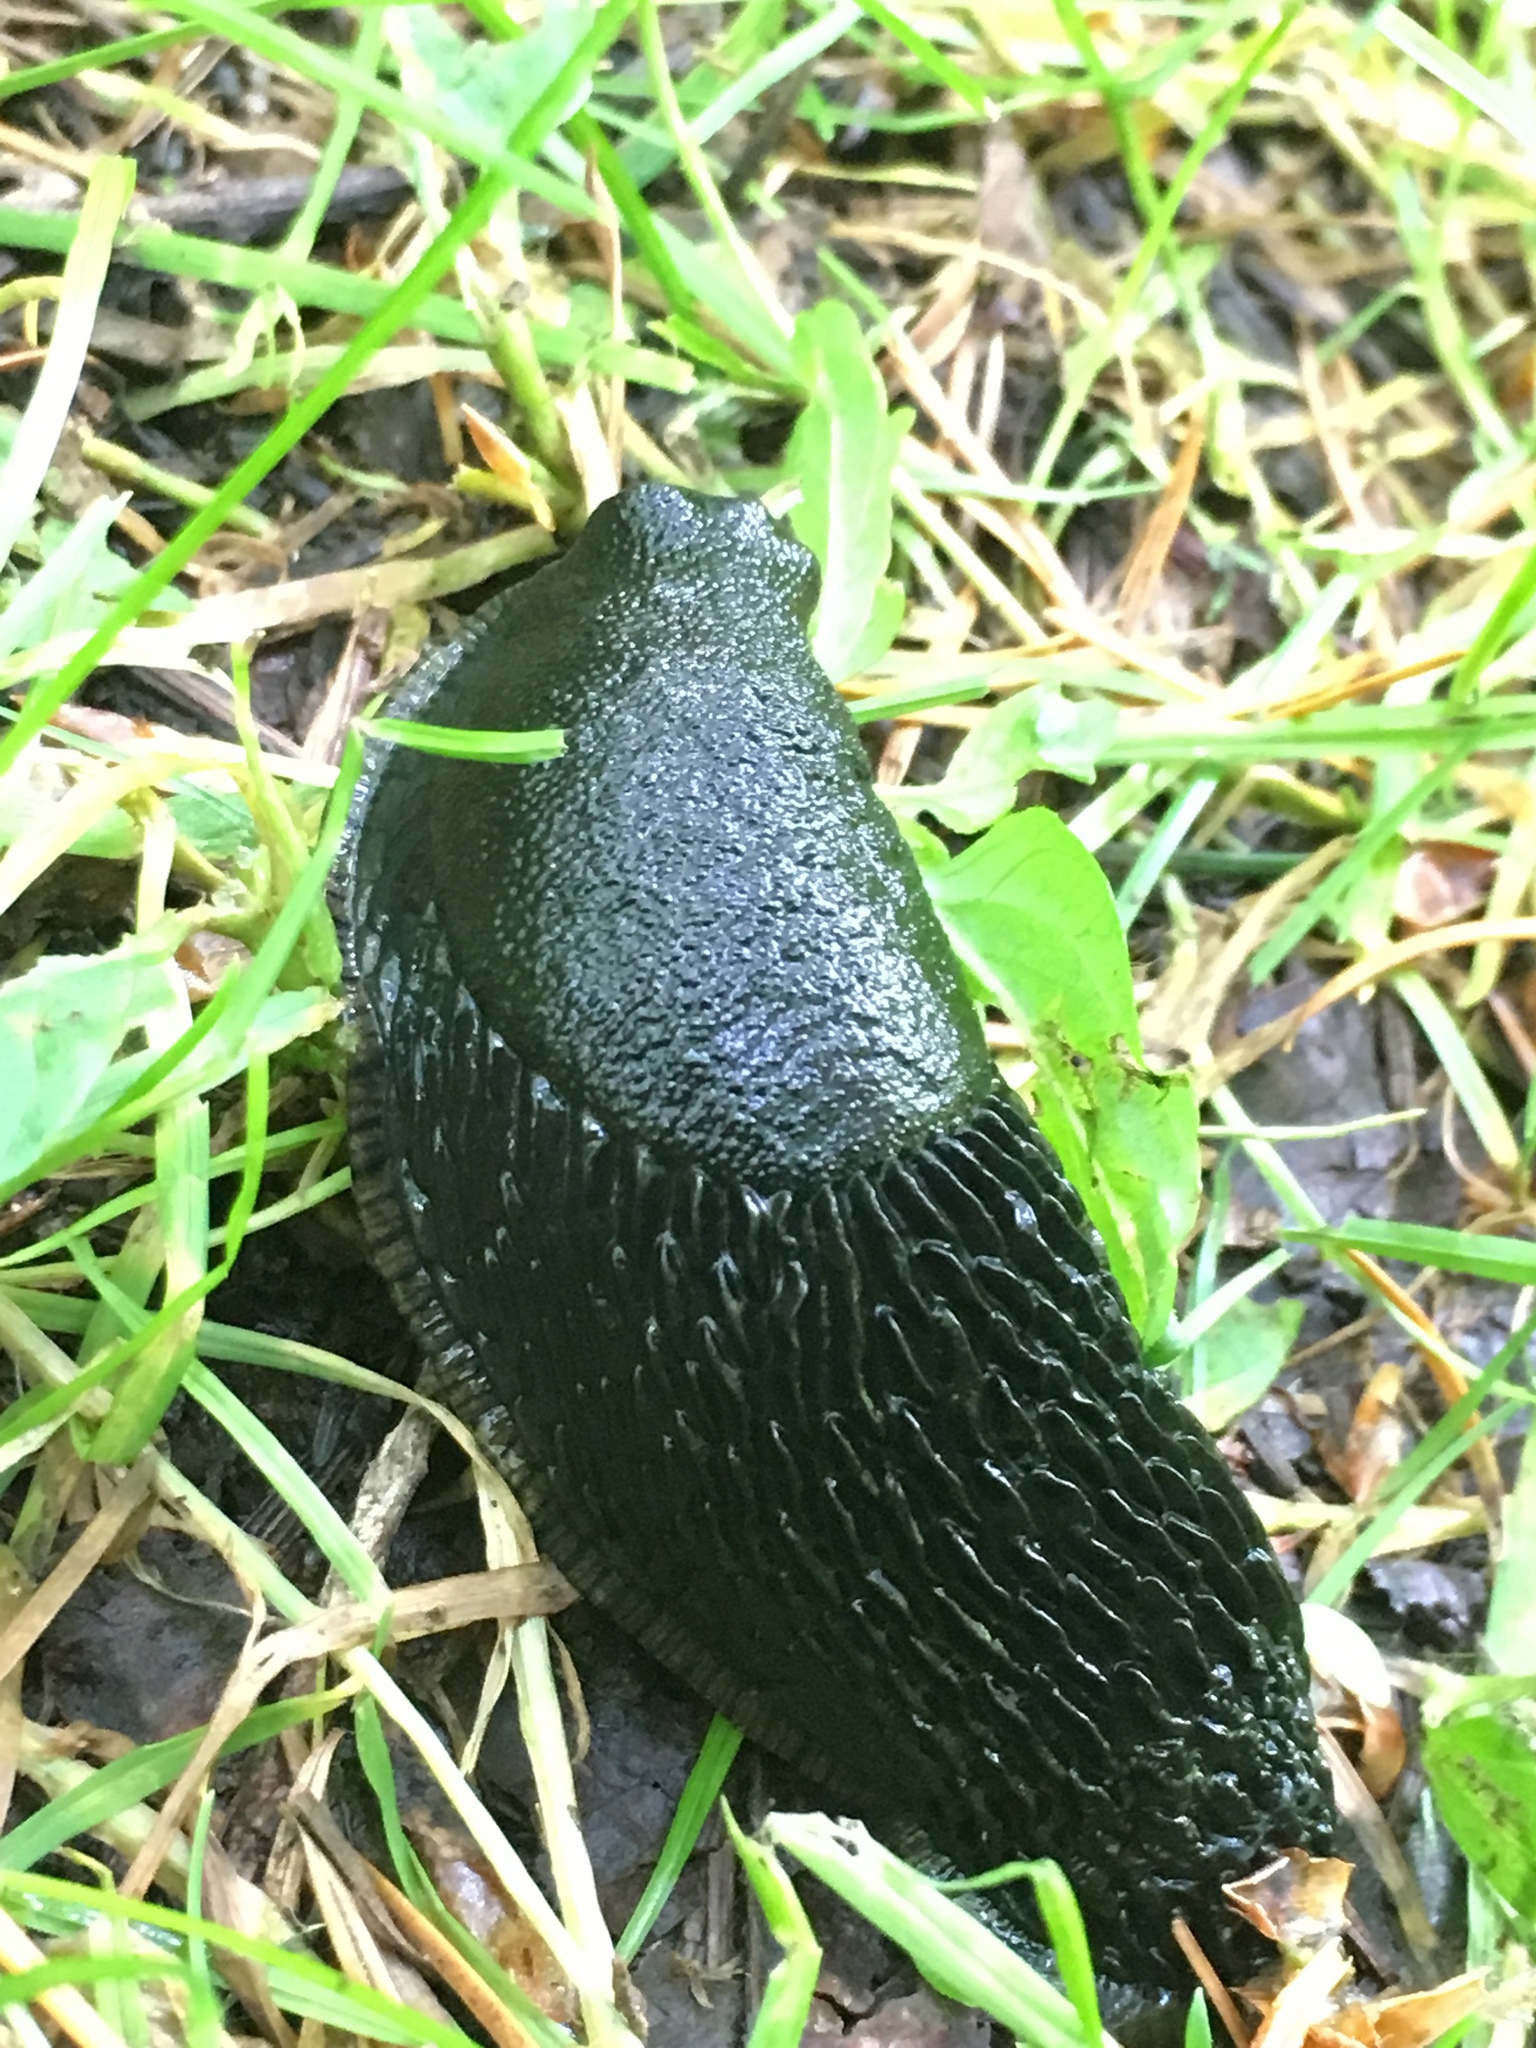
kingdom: Animalia
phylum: Mollusca
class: Gastropoda
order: Stylommatophora
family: Arionidae
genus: Arion
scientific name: Arion
